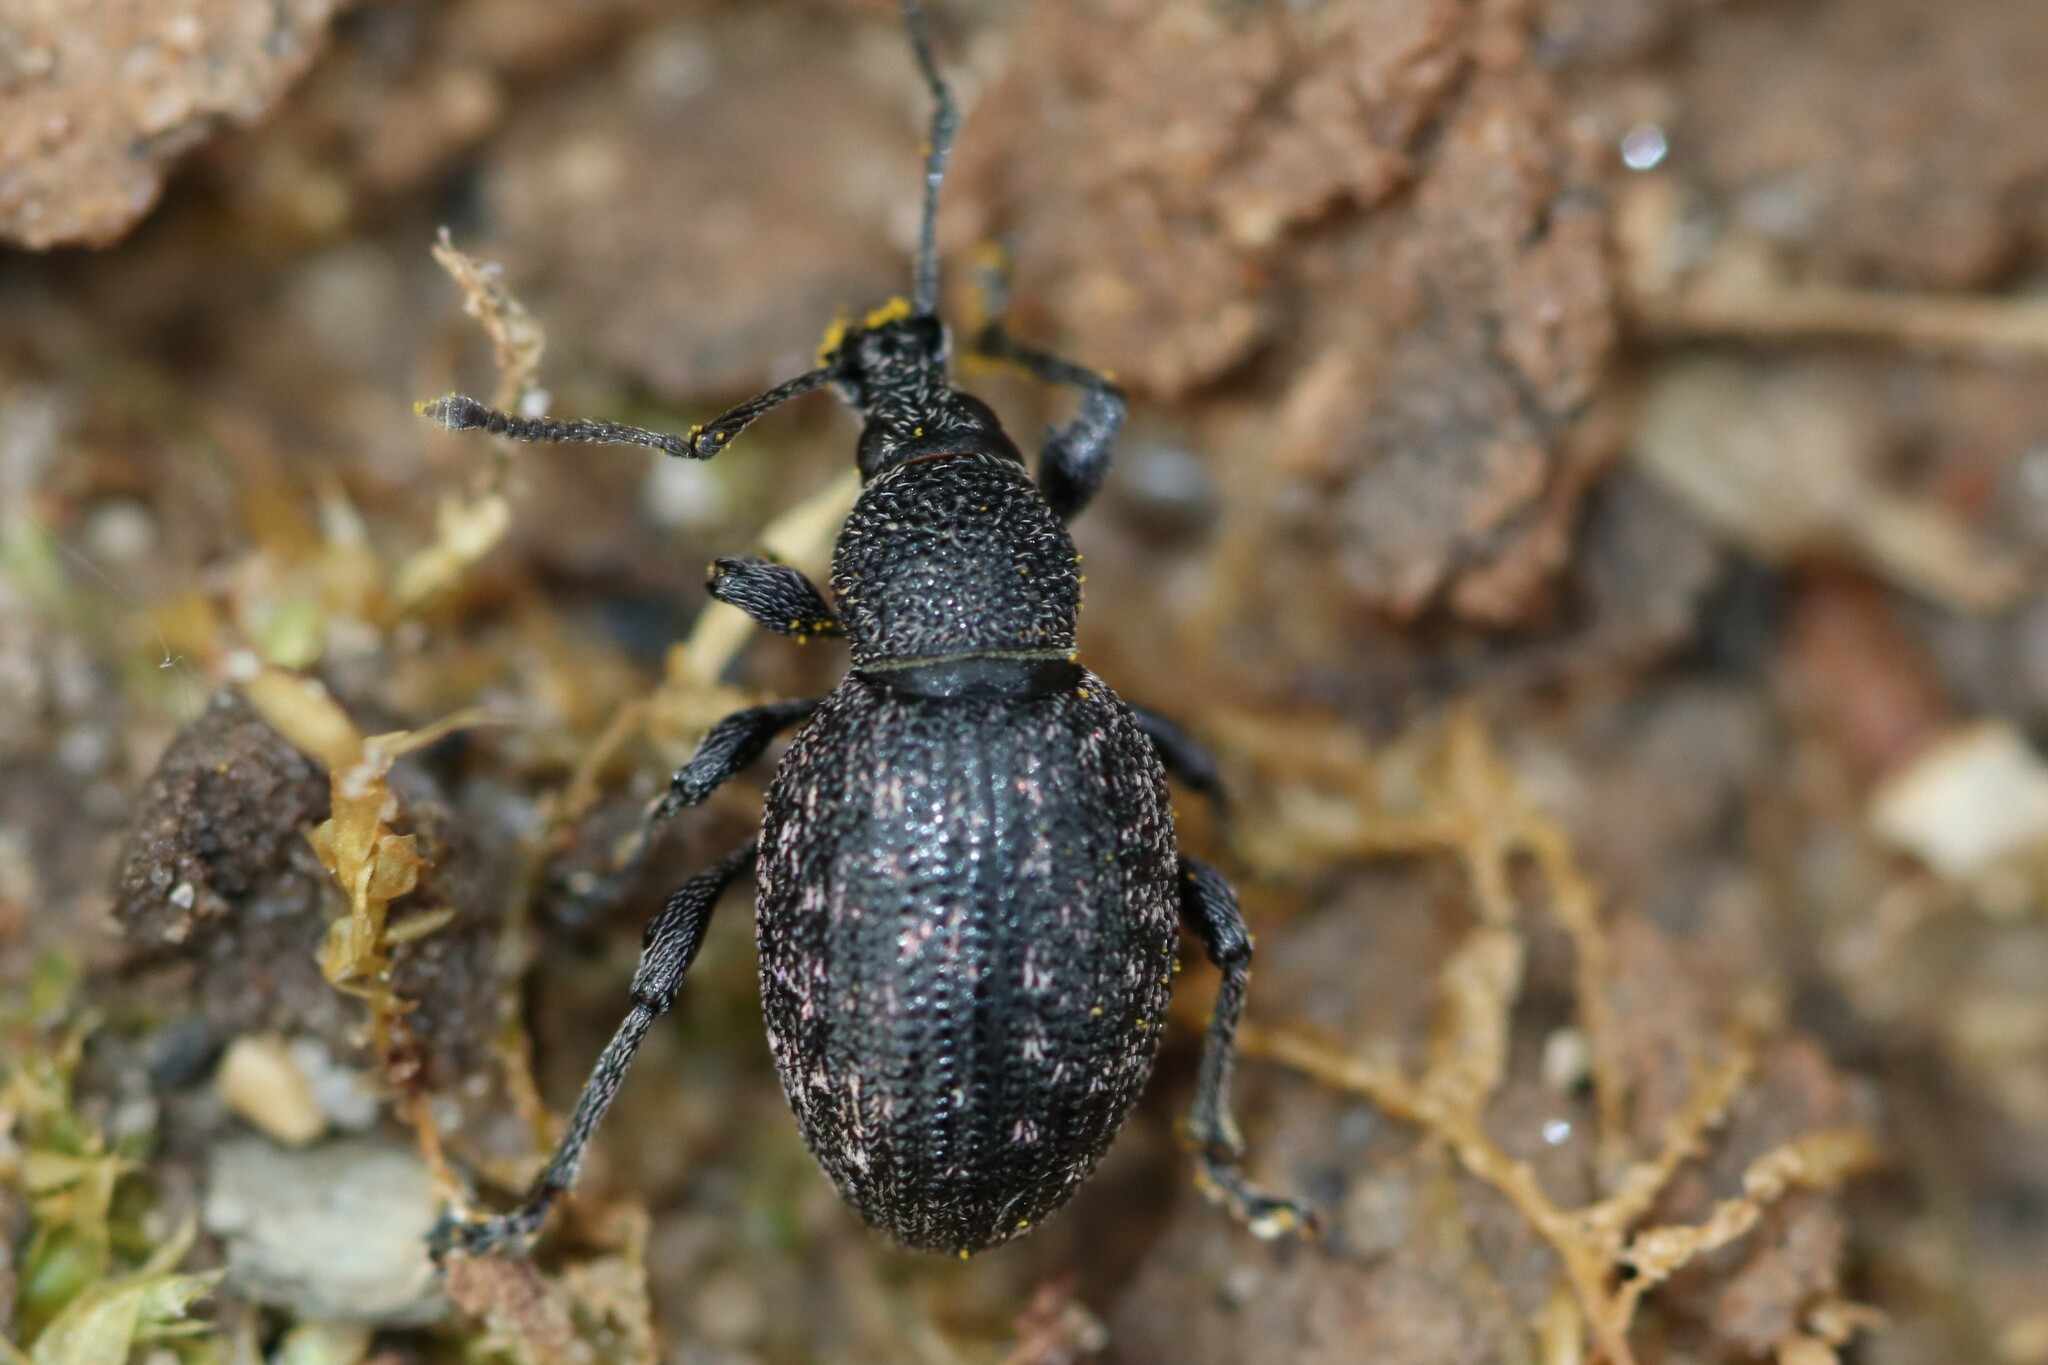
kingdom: Animalia
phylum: Arthropoda
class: Insecta
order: Coleoptera
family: Curculionidae
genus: Otiorhynchus
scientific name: Otiorhynchus tristis
